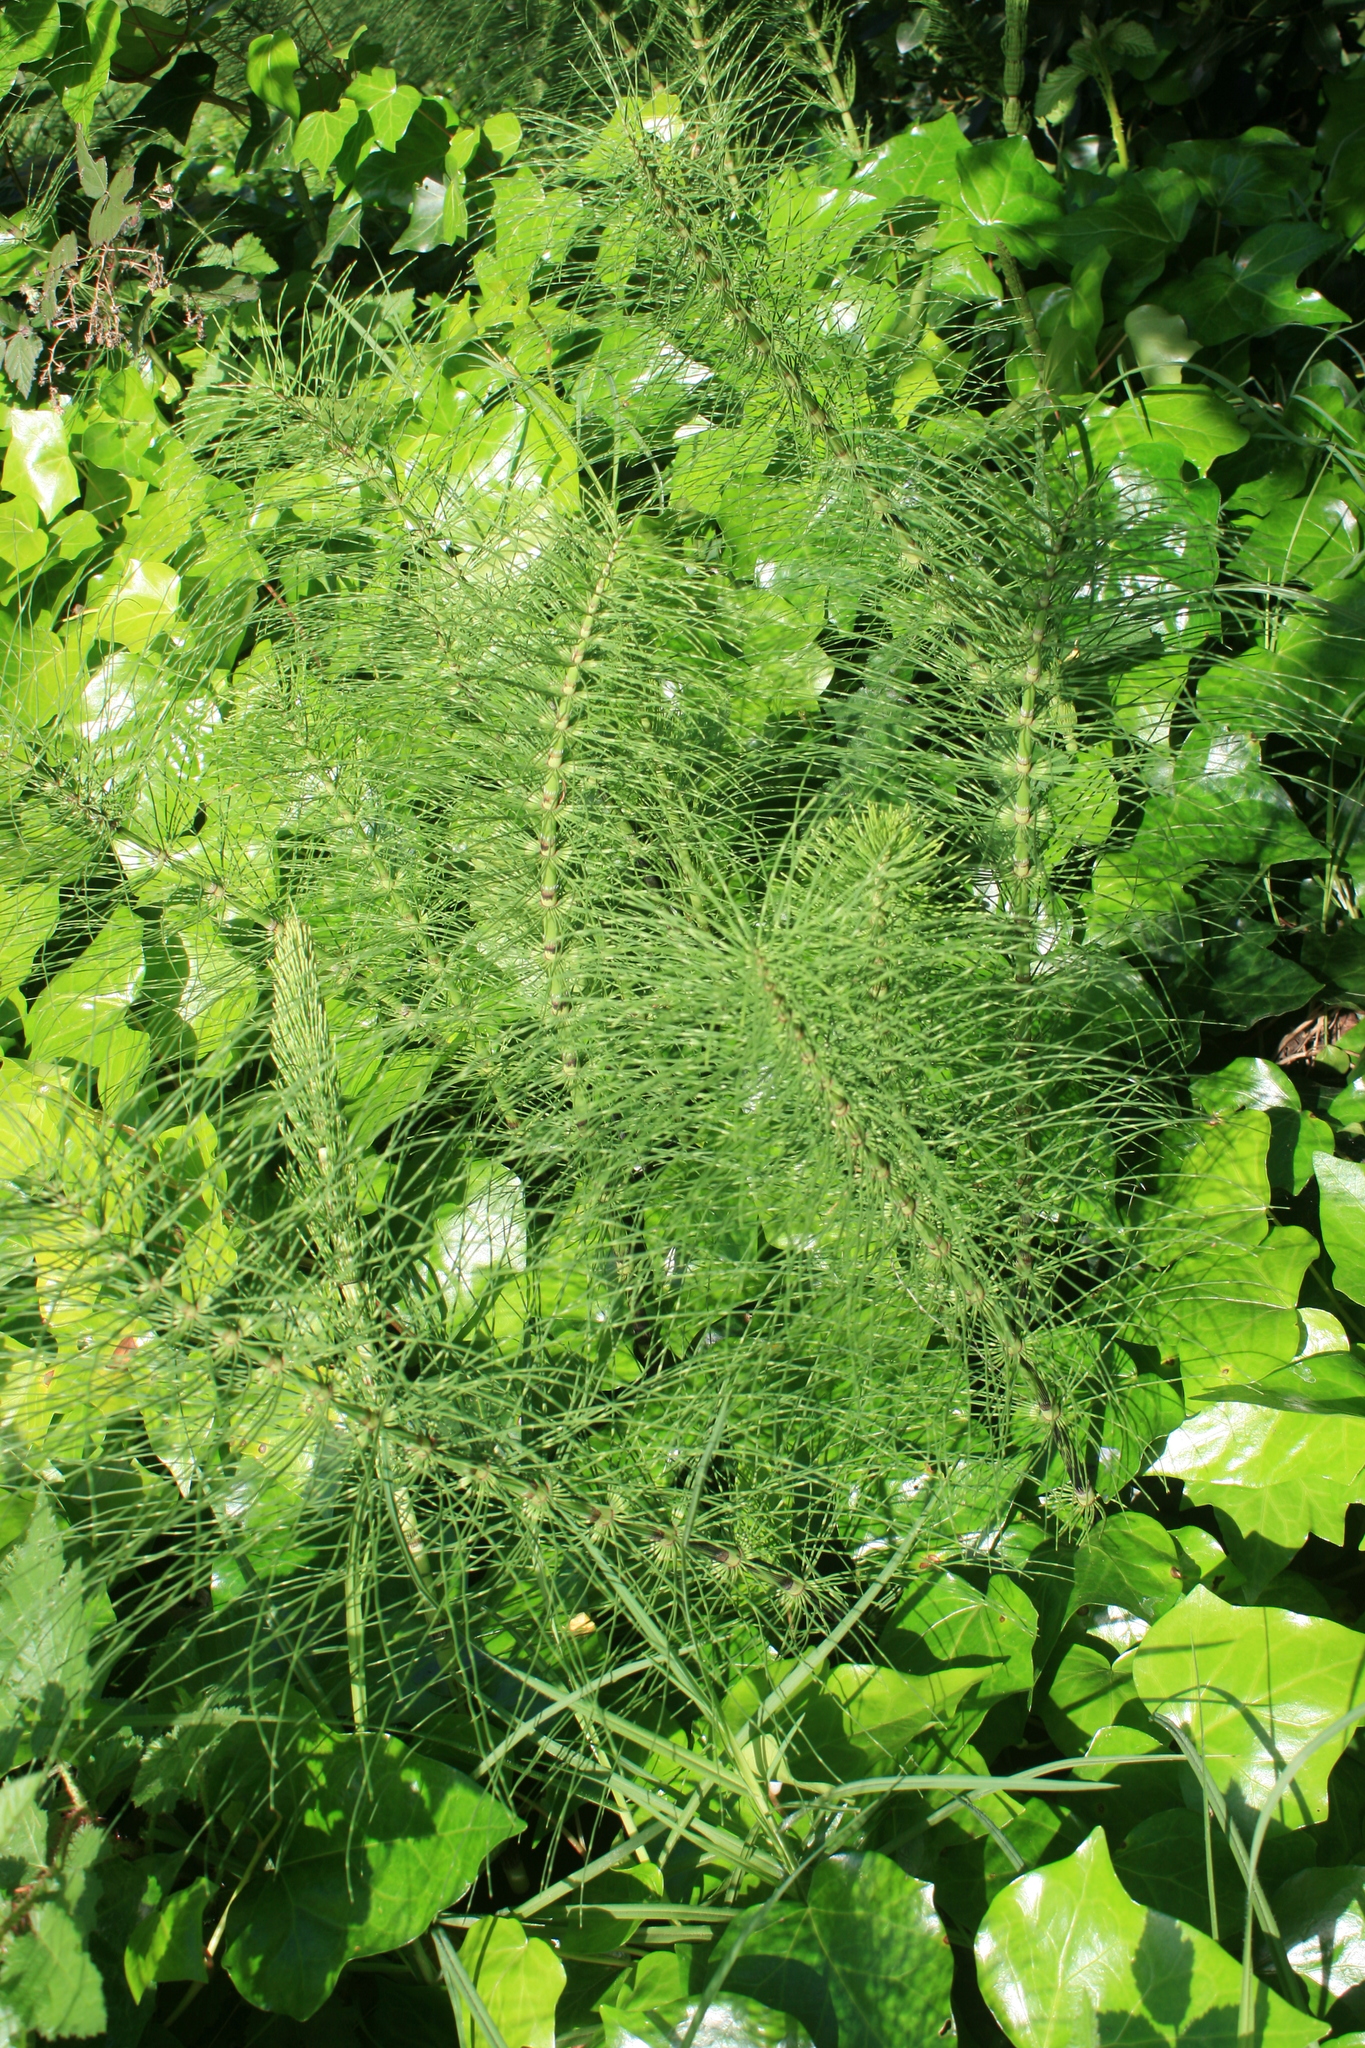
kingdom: Plantae
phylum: Tracheophyta
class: Polypodiopsida
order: Equisetales
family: Equisetaceae
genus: Equisetum
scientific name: Equisetum telmateia
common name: Great horsetail
